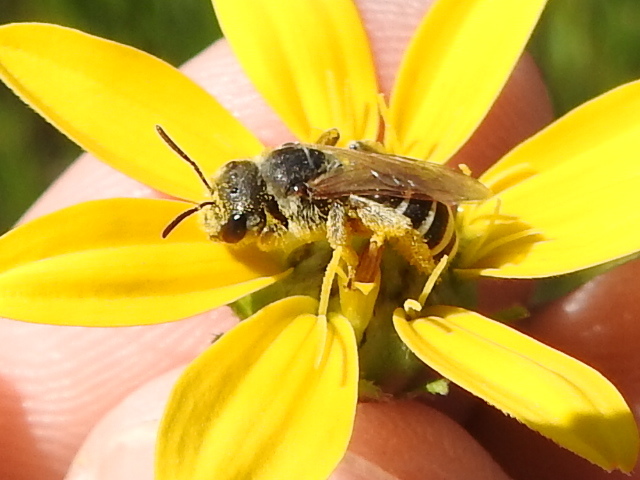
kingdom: Animalia
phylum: Arthropoda
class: Insecta
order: Hymenoptera
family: Halictidae
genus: Halictus
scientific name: Halictus ligatus
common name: Ligated furrow bee
